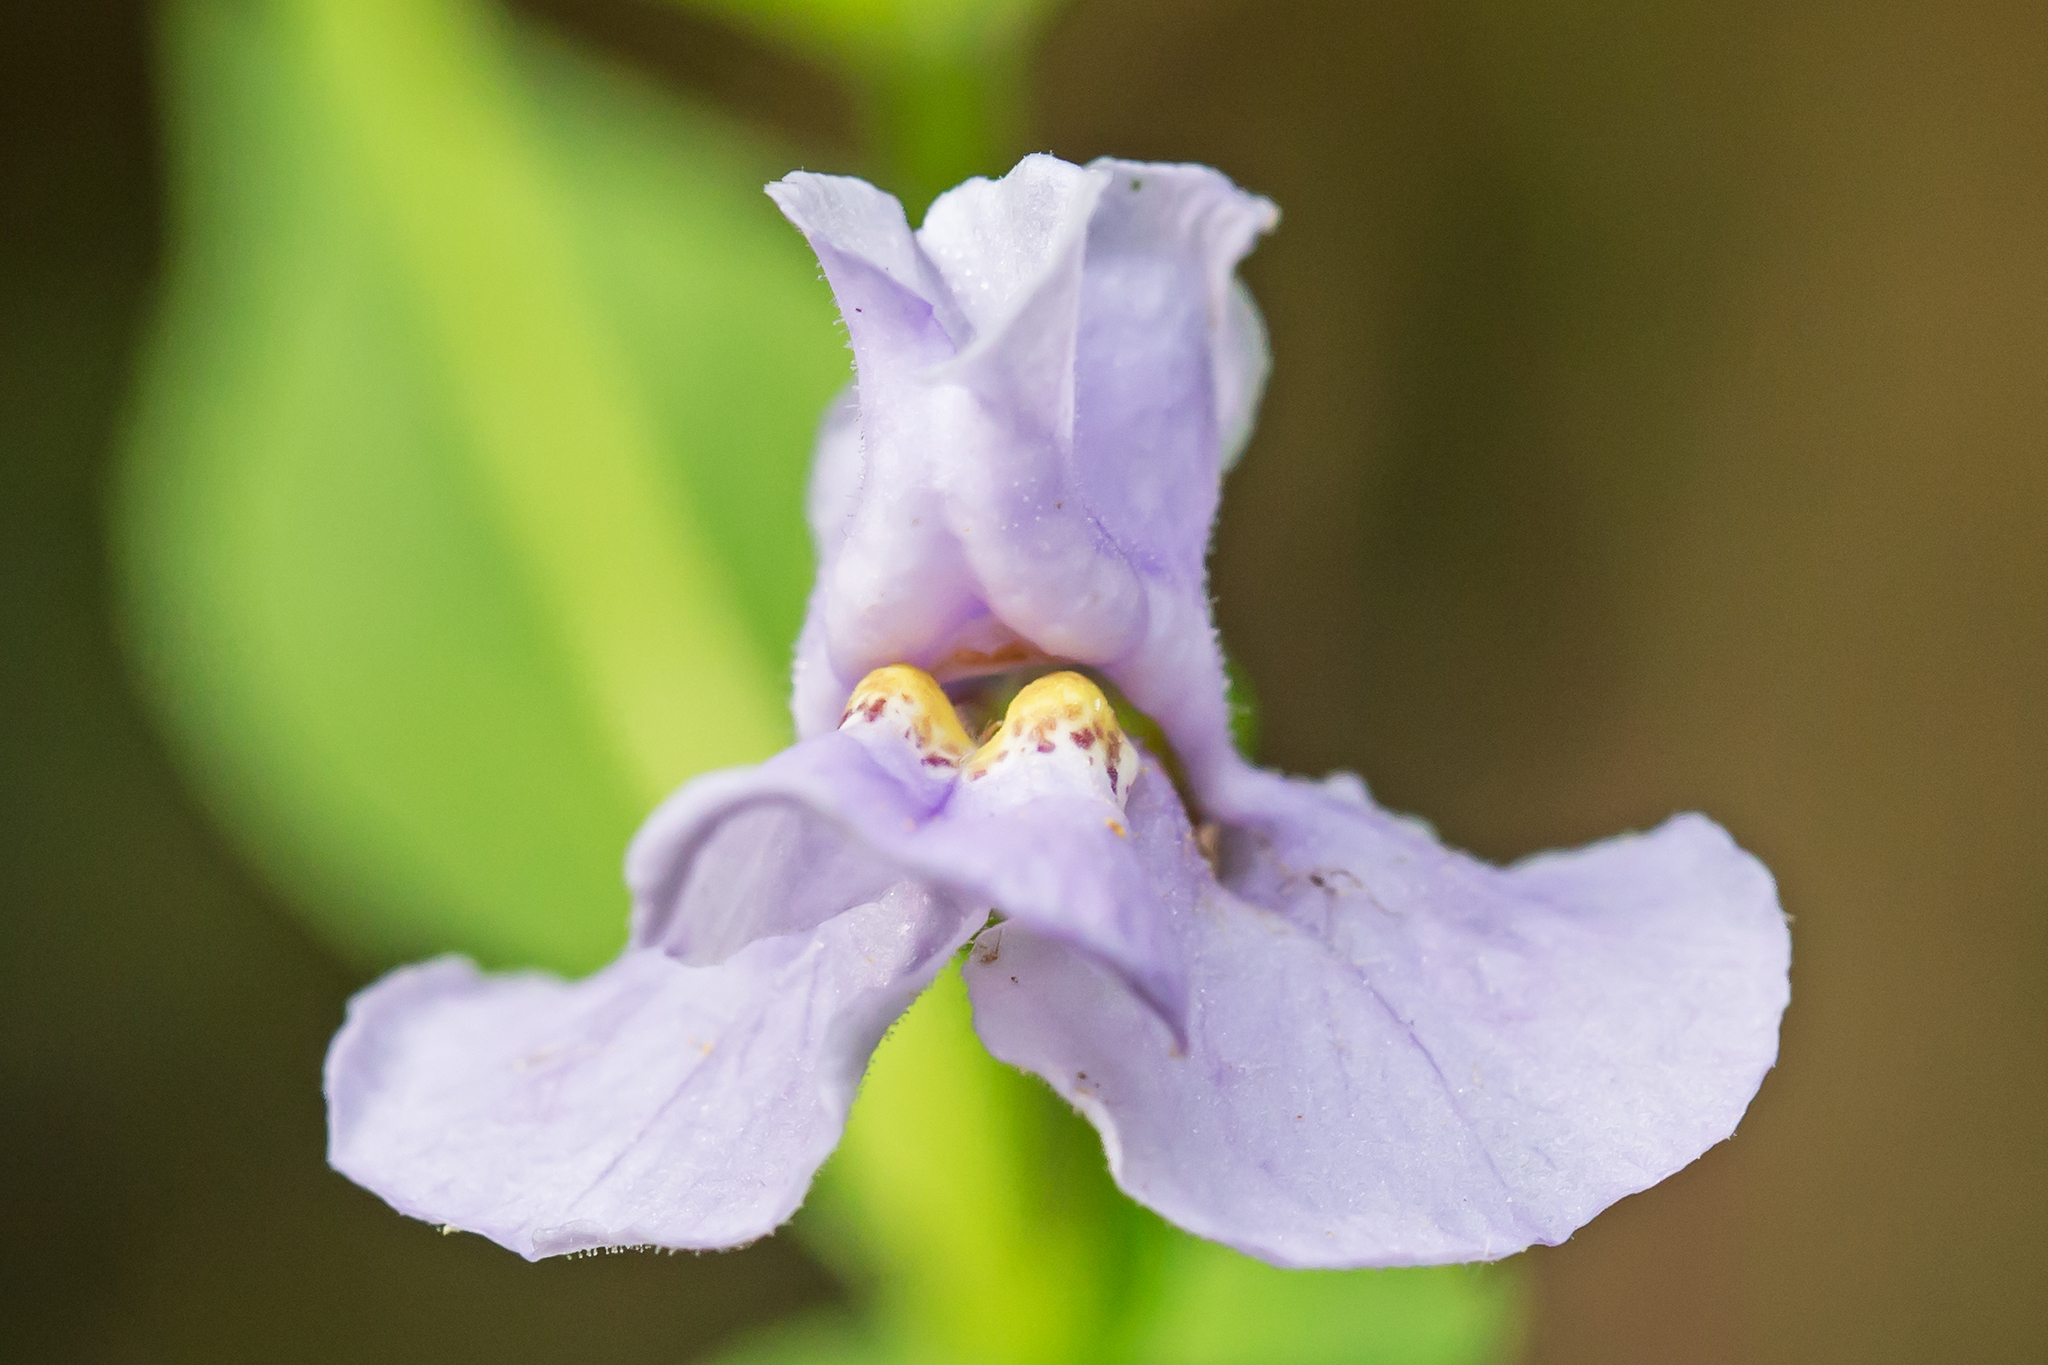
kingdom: Plantae
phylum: Tracheophyta
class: Magnoliopsida
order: Lamiales
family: Phrymaceae
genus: Mimulus
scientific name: Mimulus ringens
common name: Allegheny monkeyflower
